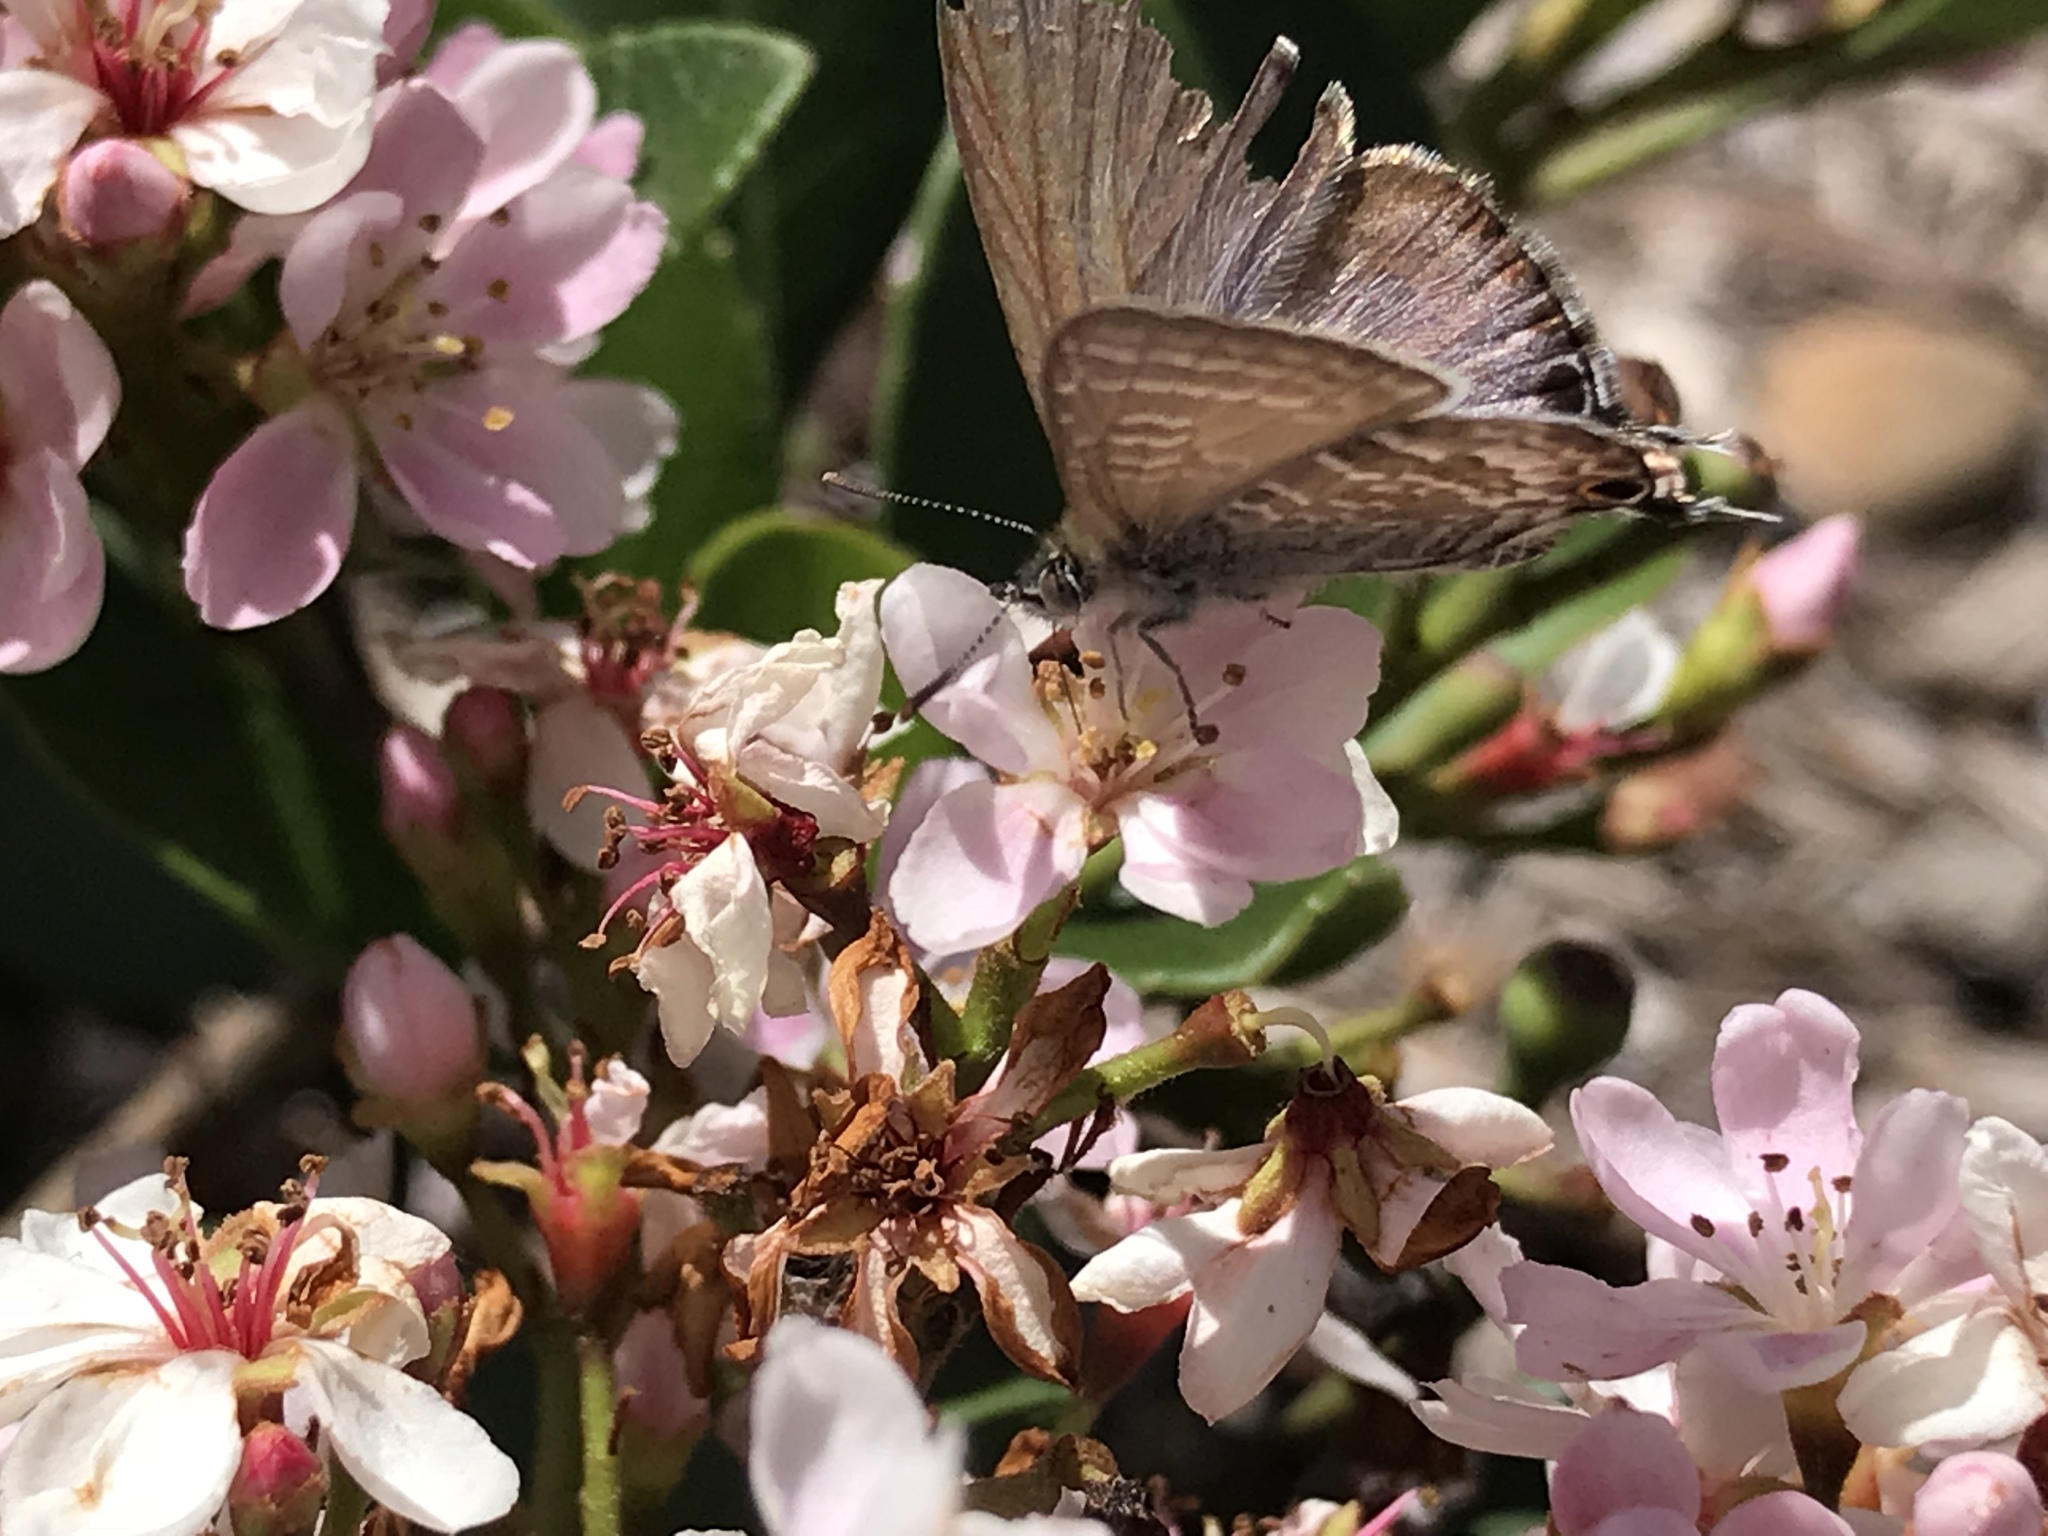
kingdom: Animalia
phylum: Arthropoda
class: Insecta
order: Lepidoptera
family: Lycaenidae
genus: Theclinesthes
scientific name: Theclinesthes onycha
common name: Cycad blue
